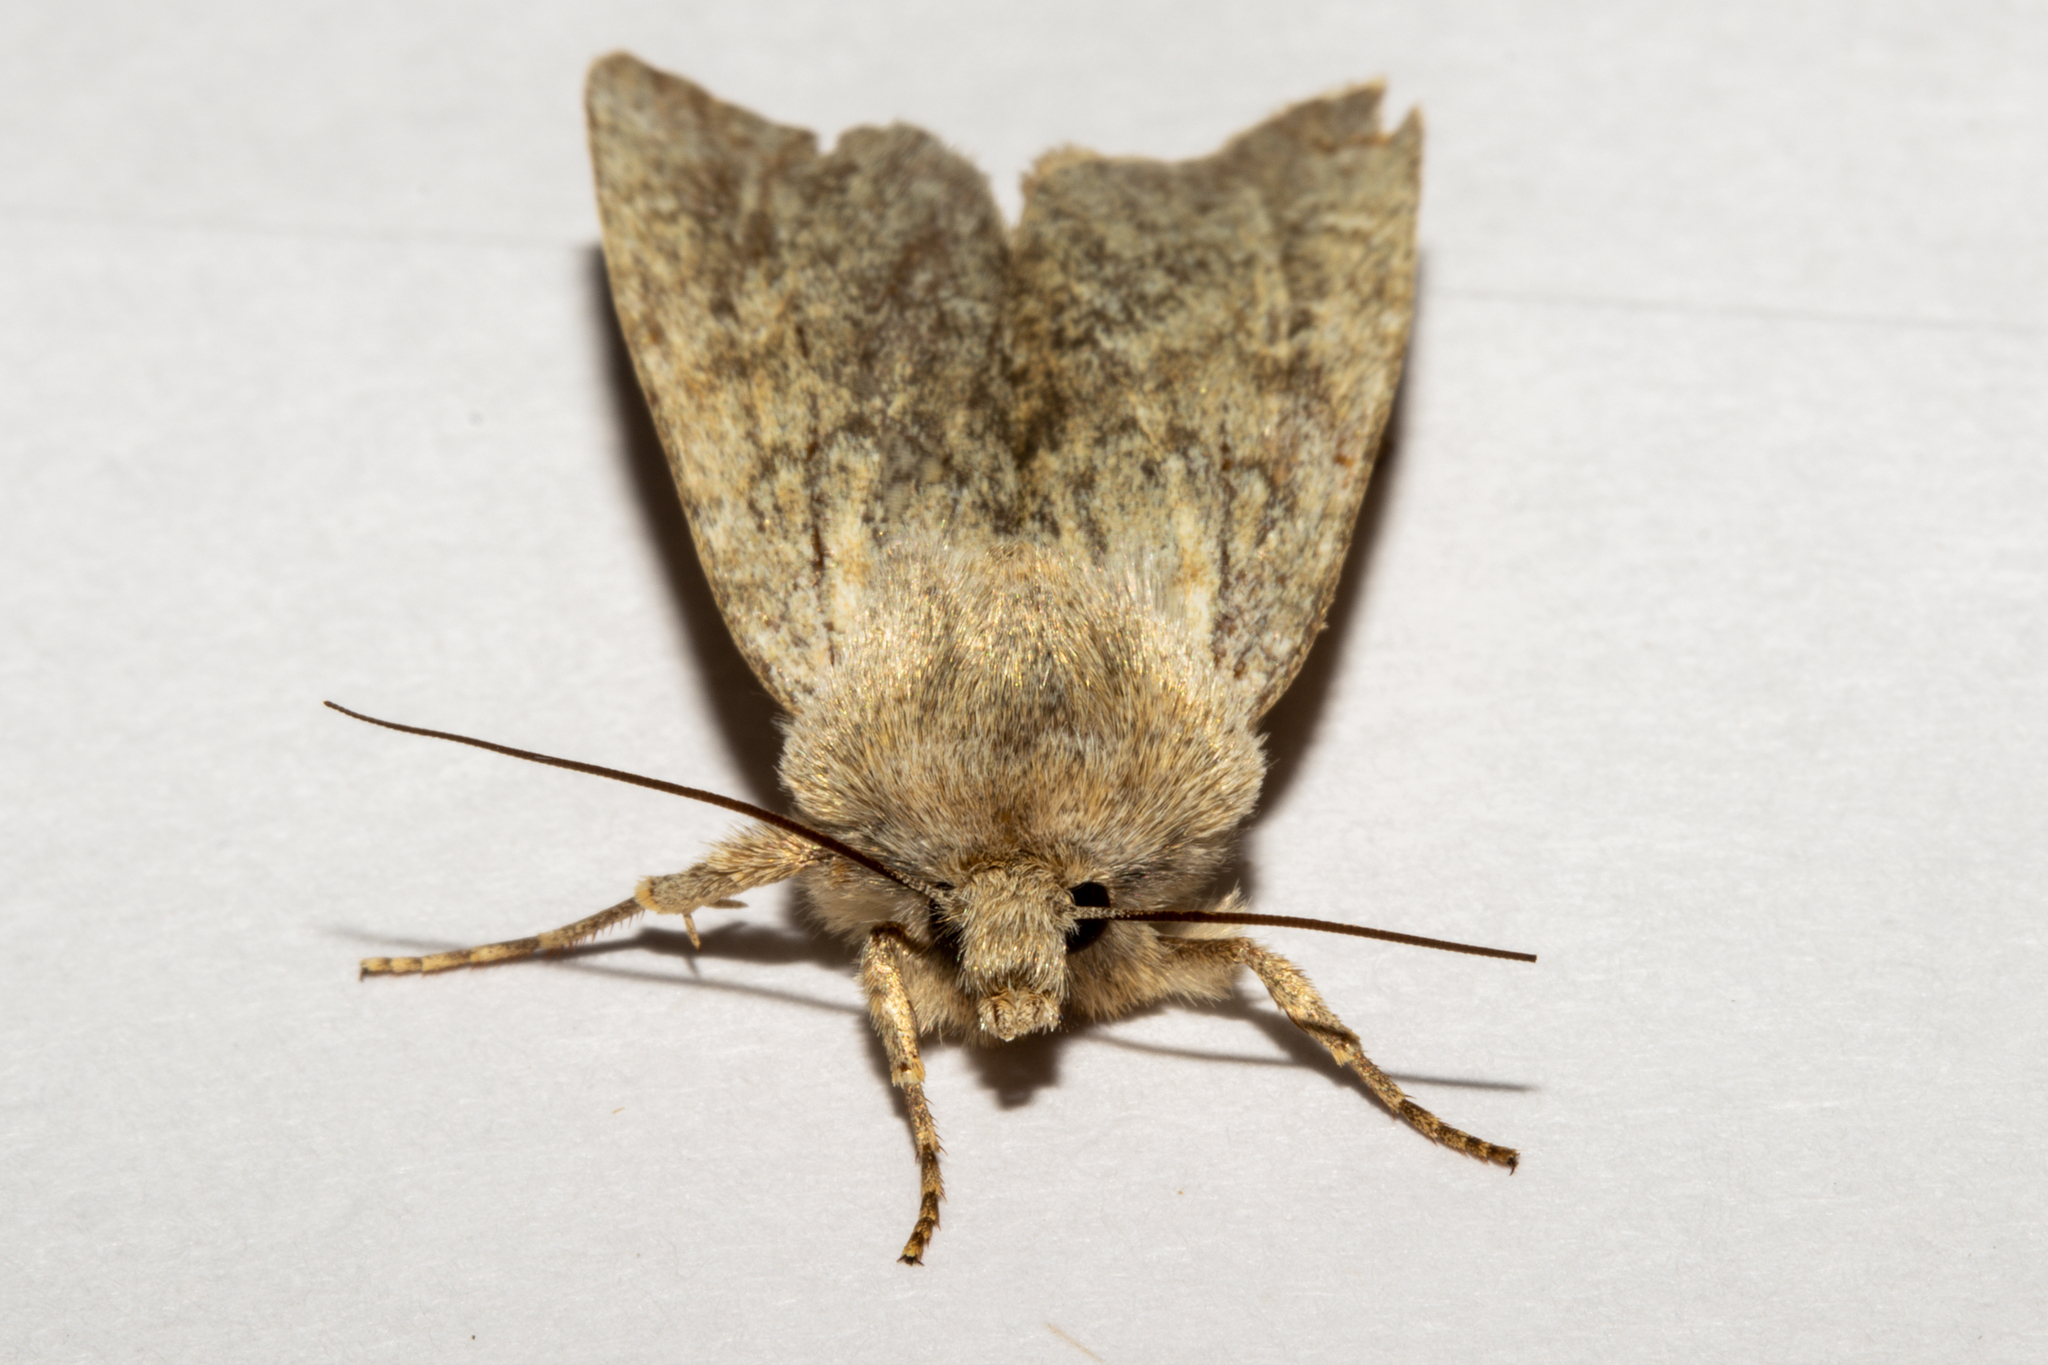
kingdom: Animalia
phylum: Arthropoda
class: Insecta
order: Lepidoptera
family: Noctuidae
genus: Physetica
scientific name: Physetica caerulea
